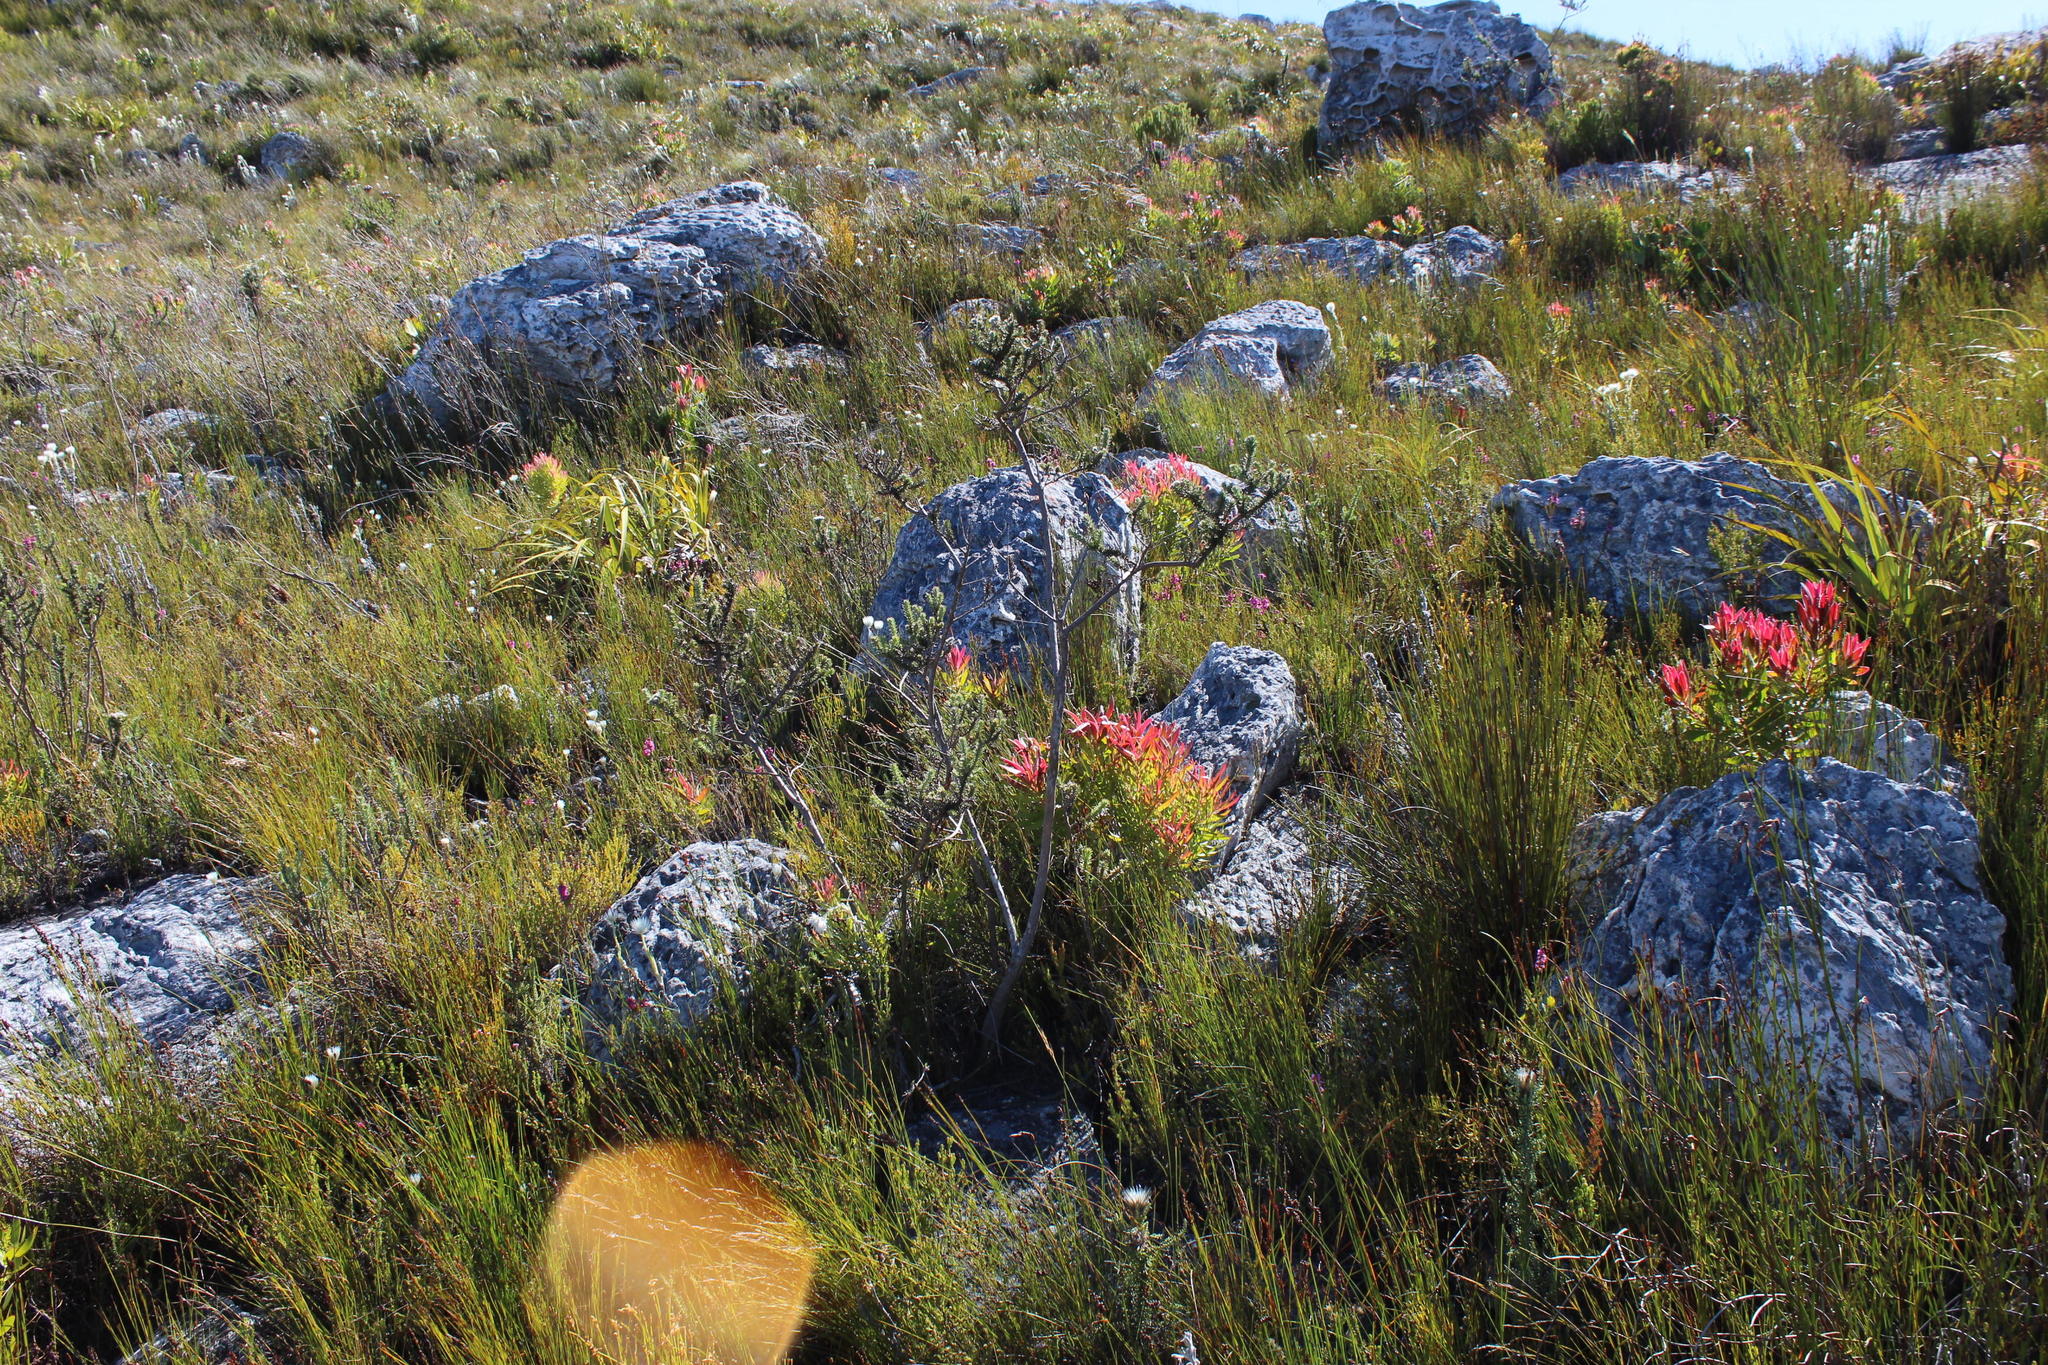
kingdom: Plantae
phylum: Tracheophyta
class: Magnoliopsida
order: Asterales
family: Campanulaceae
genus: Prismatocarpus
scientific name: Prismatocarpus fruticosus
